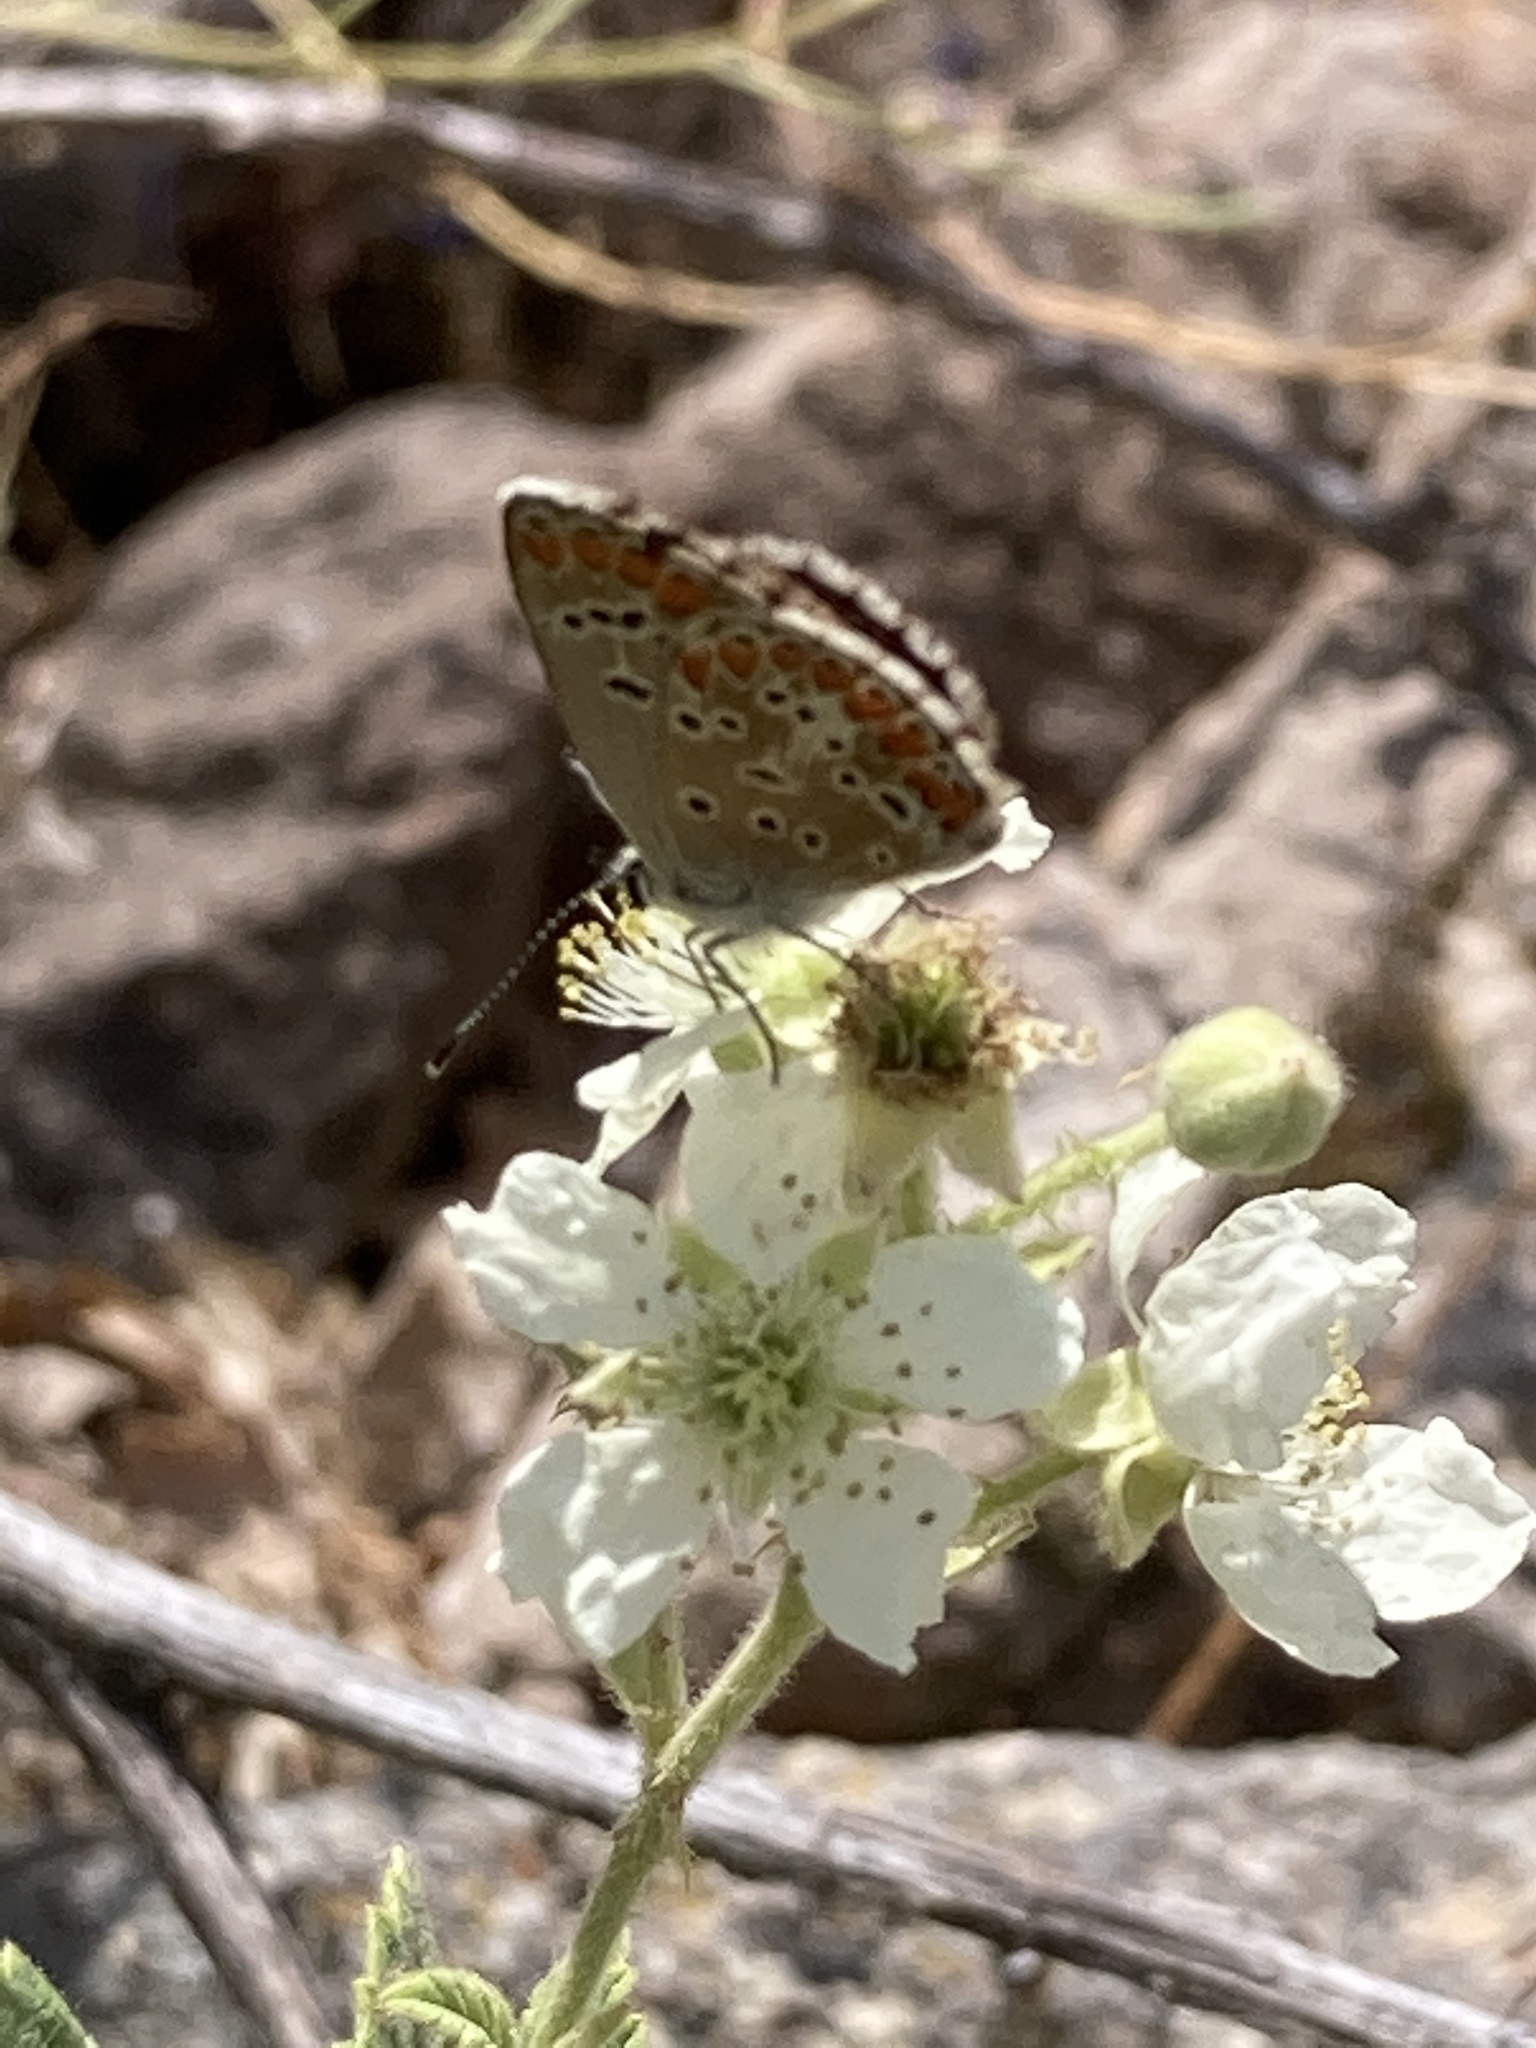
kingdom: Animalia
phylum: Arthropoda
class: Insecta
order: Lepidoptera
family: Lycaenidae
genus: Aricia
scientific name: Aricia agestis
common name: Brown argus
